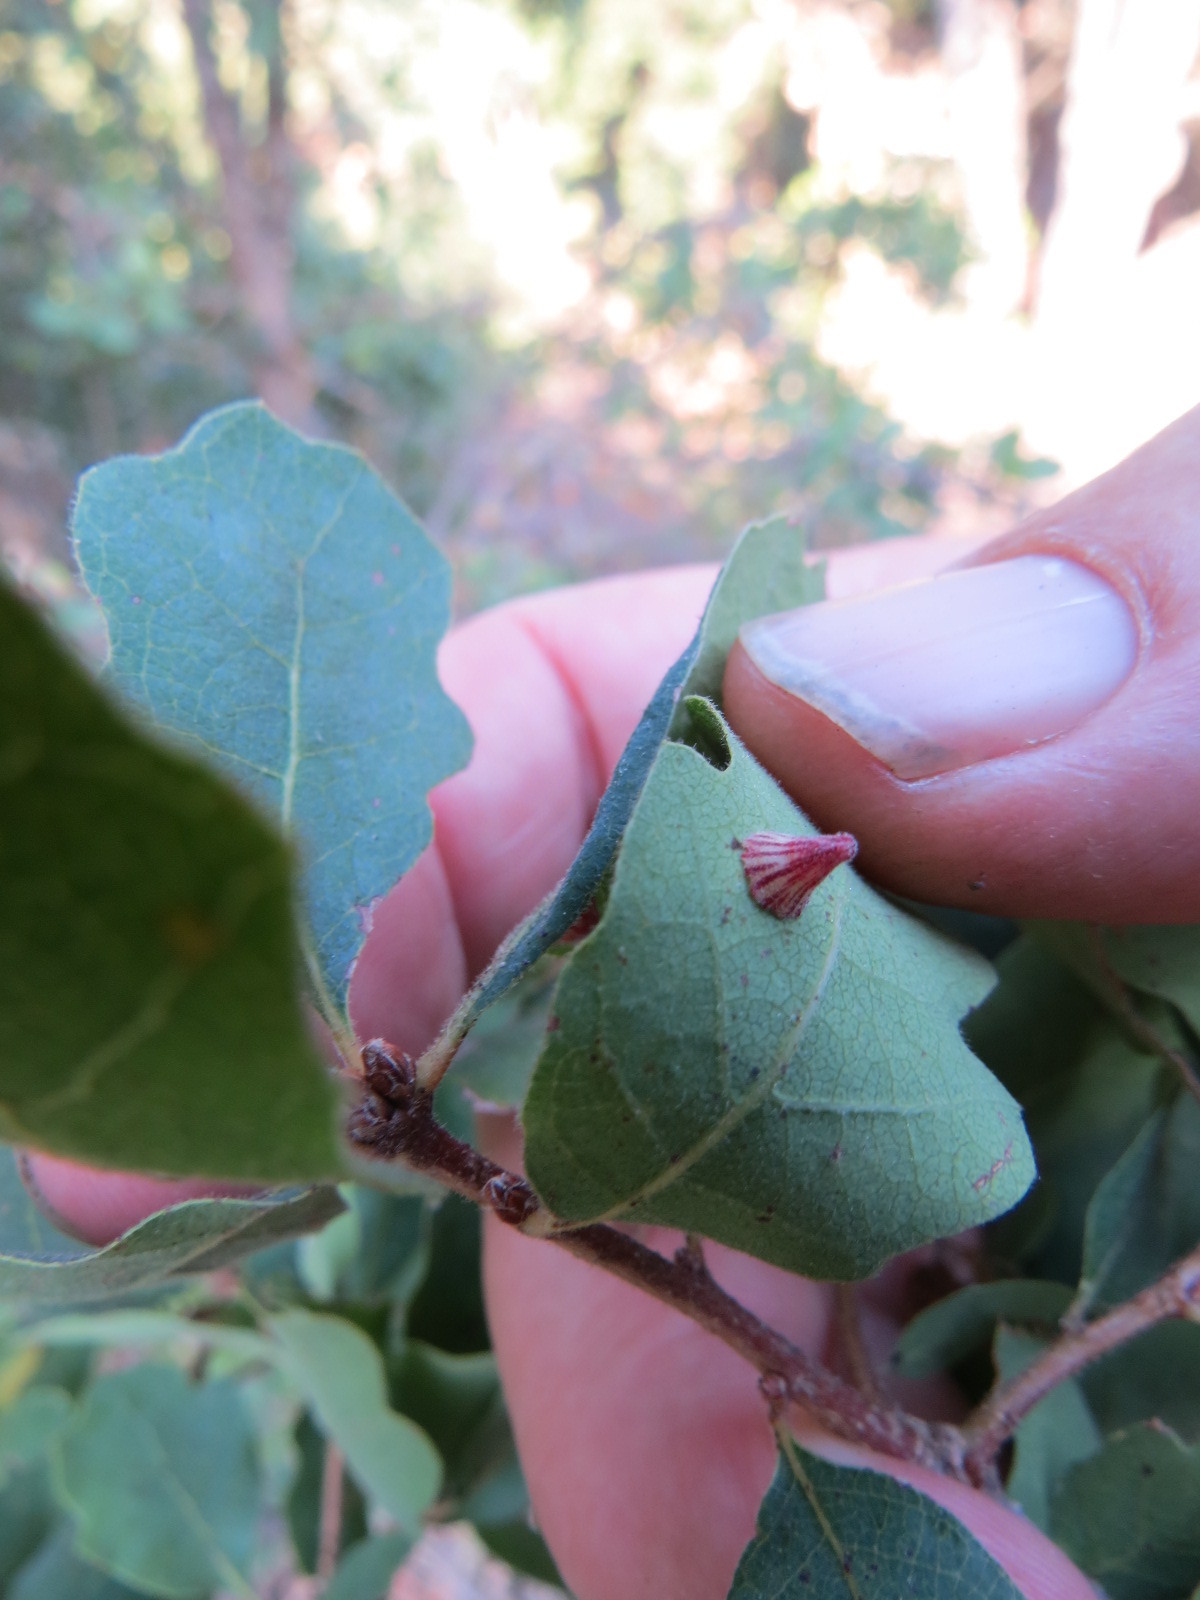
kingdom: Animalia
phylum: Arthropoda
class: Insecta
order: Hymenoptera
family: Cynipidae
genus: Andricus
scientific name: Andricus
